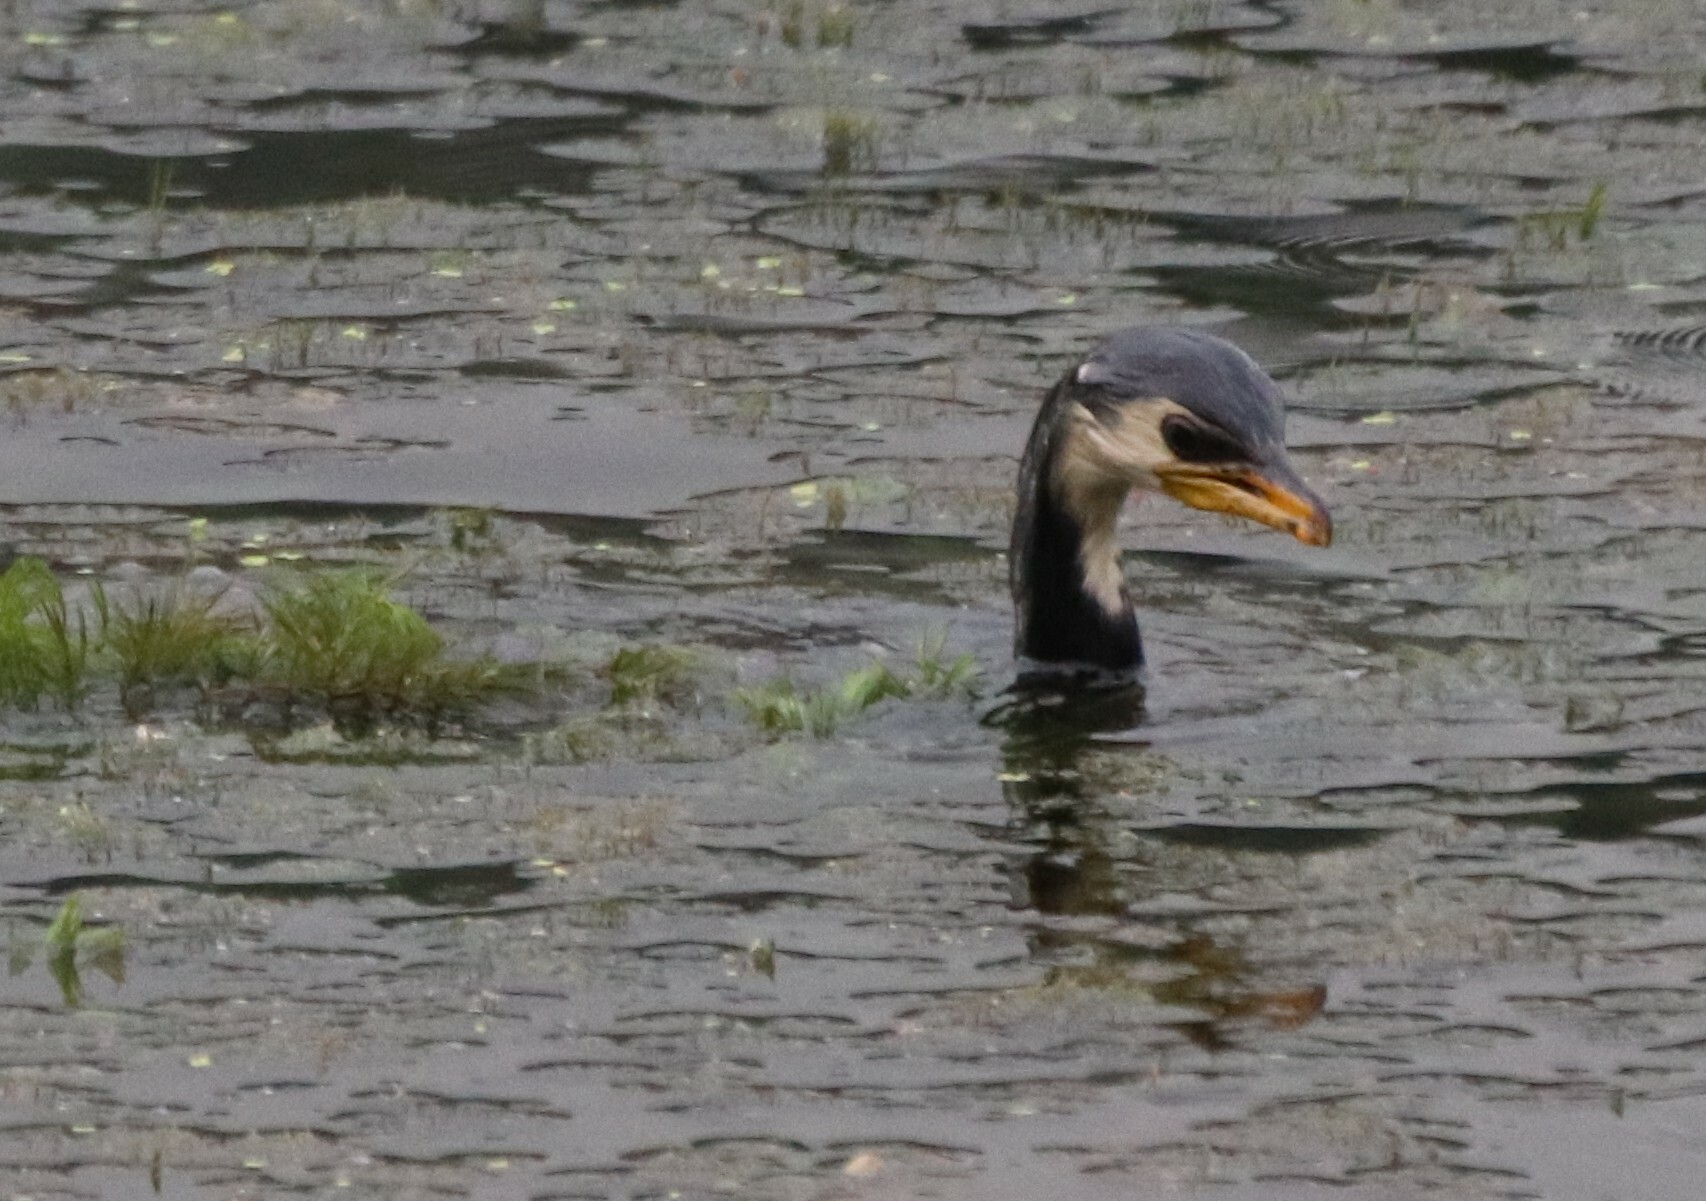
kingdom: Animalia
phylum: Chordata
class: Aves
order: Suliformes
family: Phalacrocoracidae
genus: Microcarbo
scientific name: Microcarbo melanoleucos
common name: Little pied cormorant
